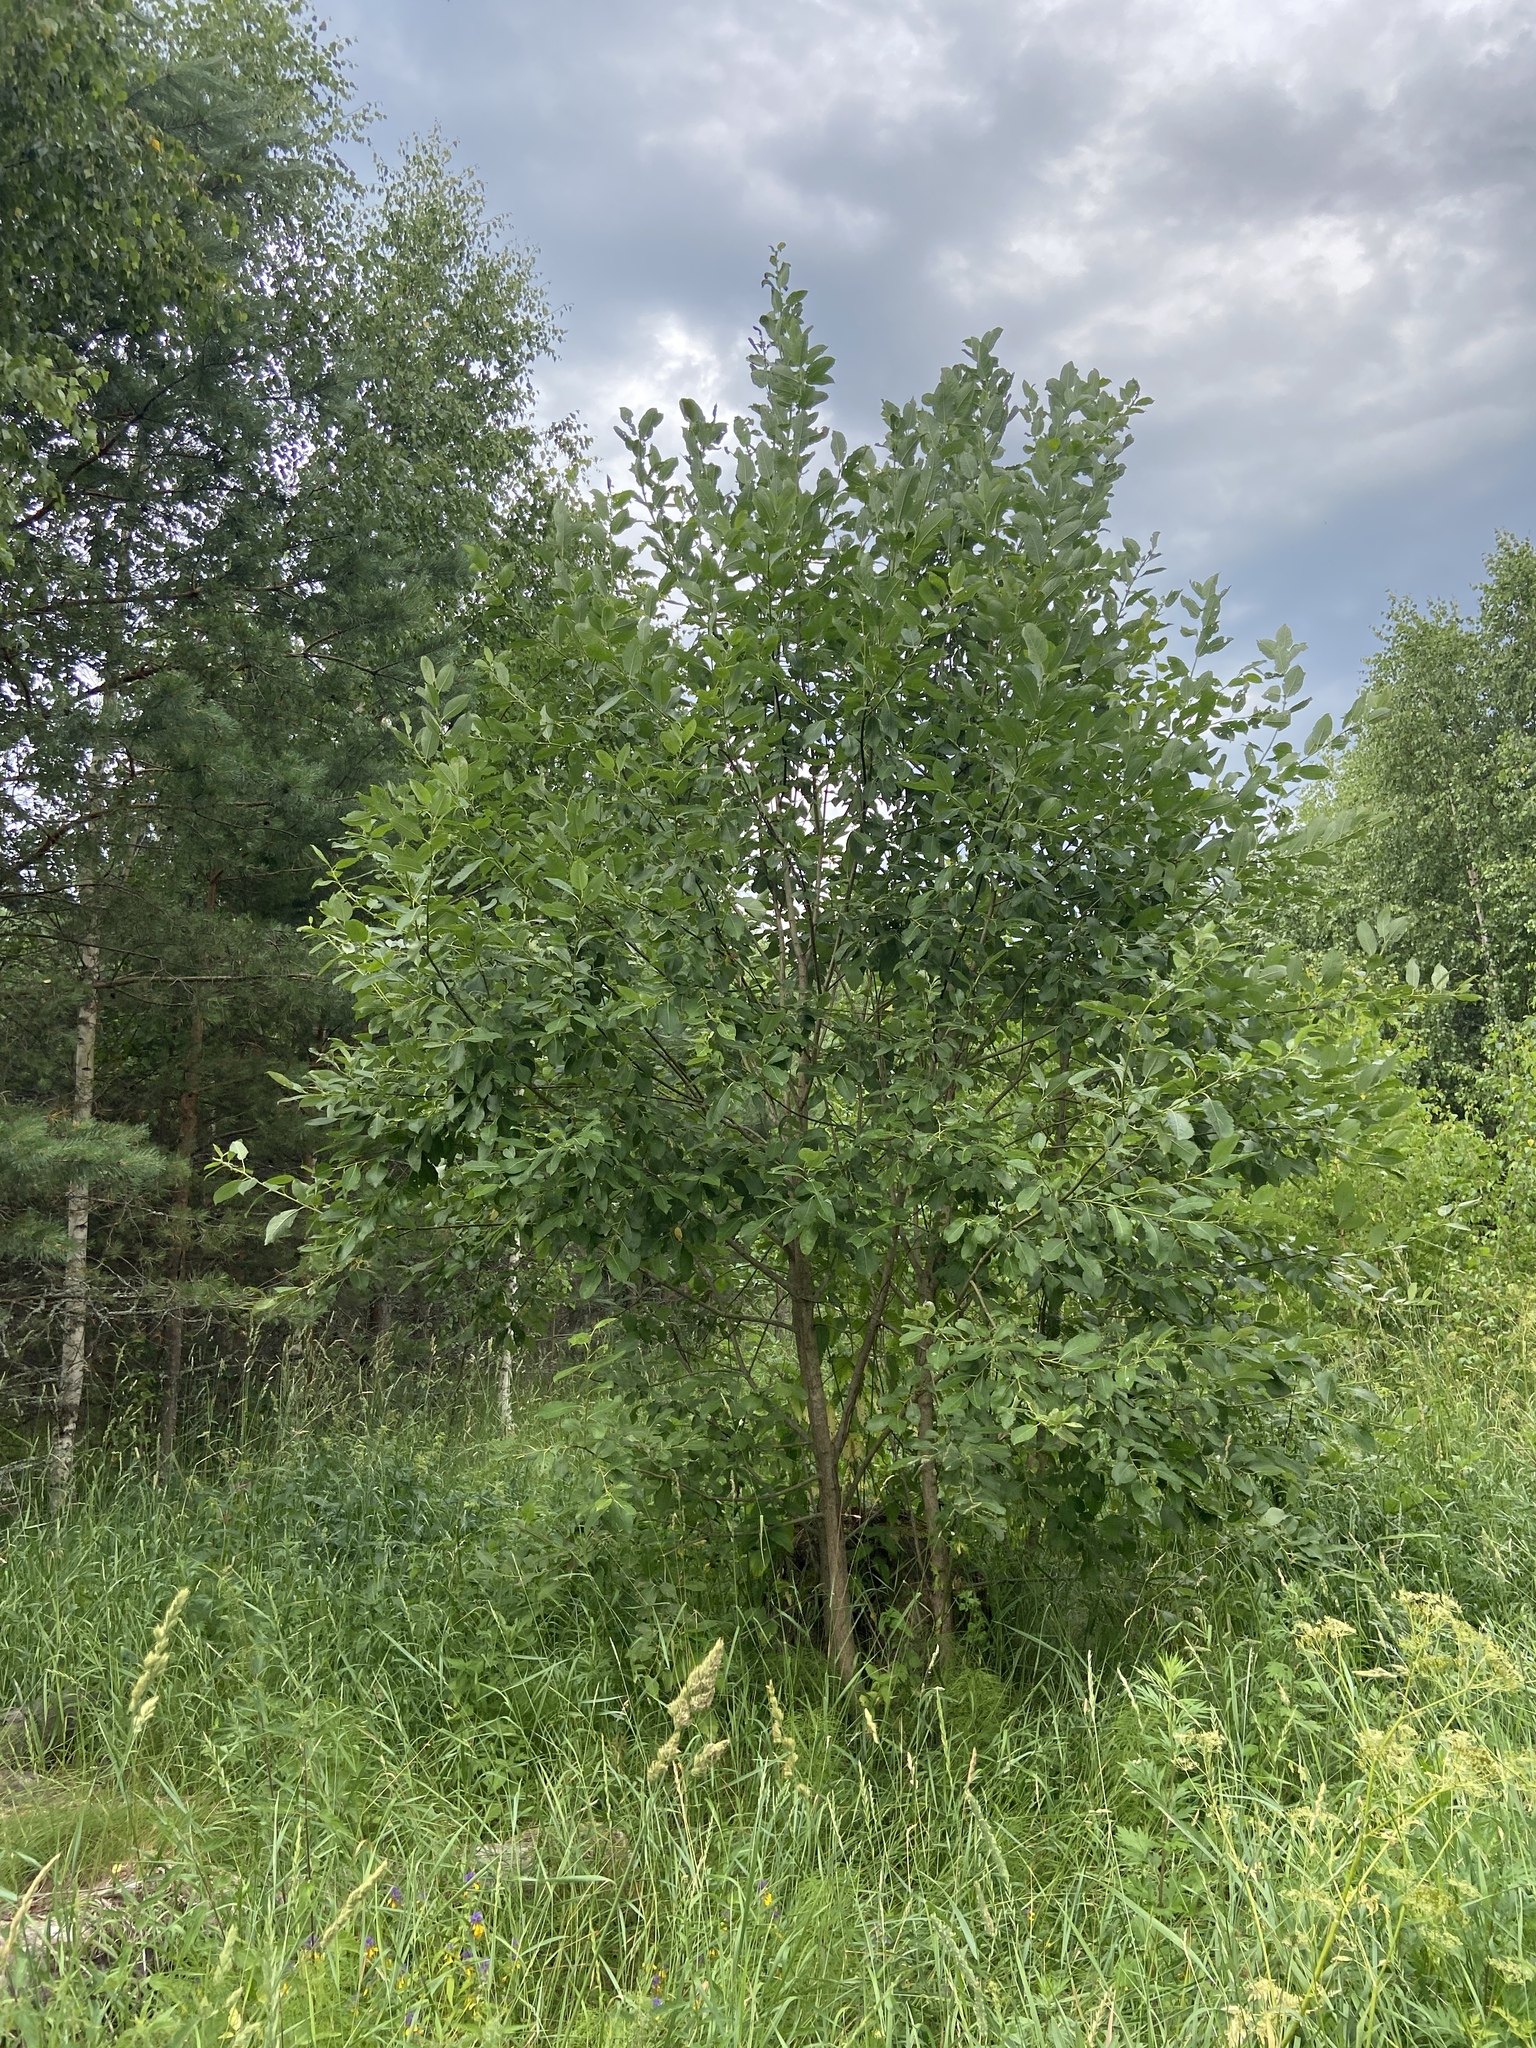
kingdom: Plantae
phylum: Tracheophyta
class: Magnoliopsida
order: Malpighiales
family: Salicaceae
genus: Salix
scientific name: Salix caprea
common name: Goat willow
